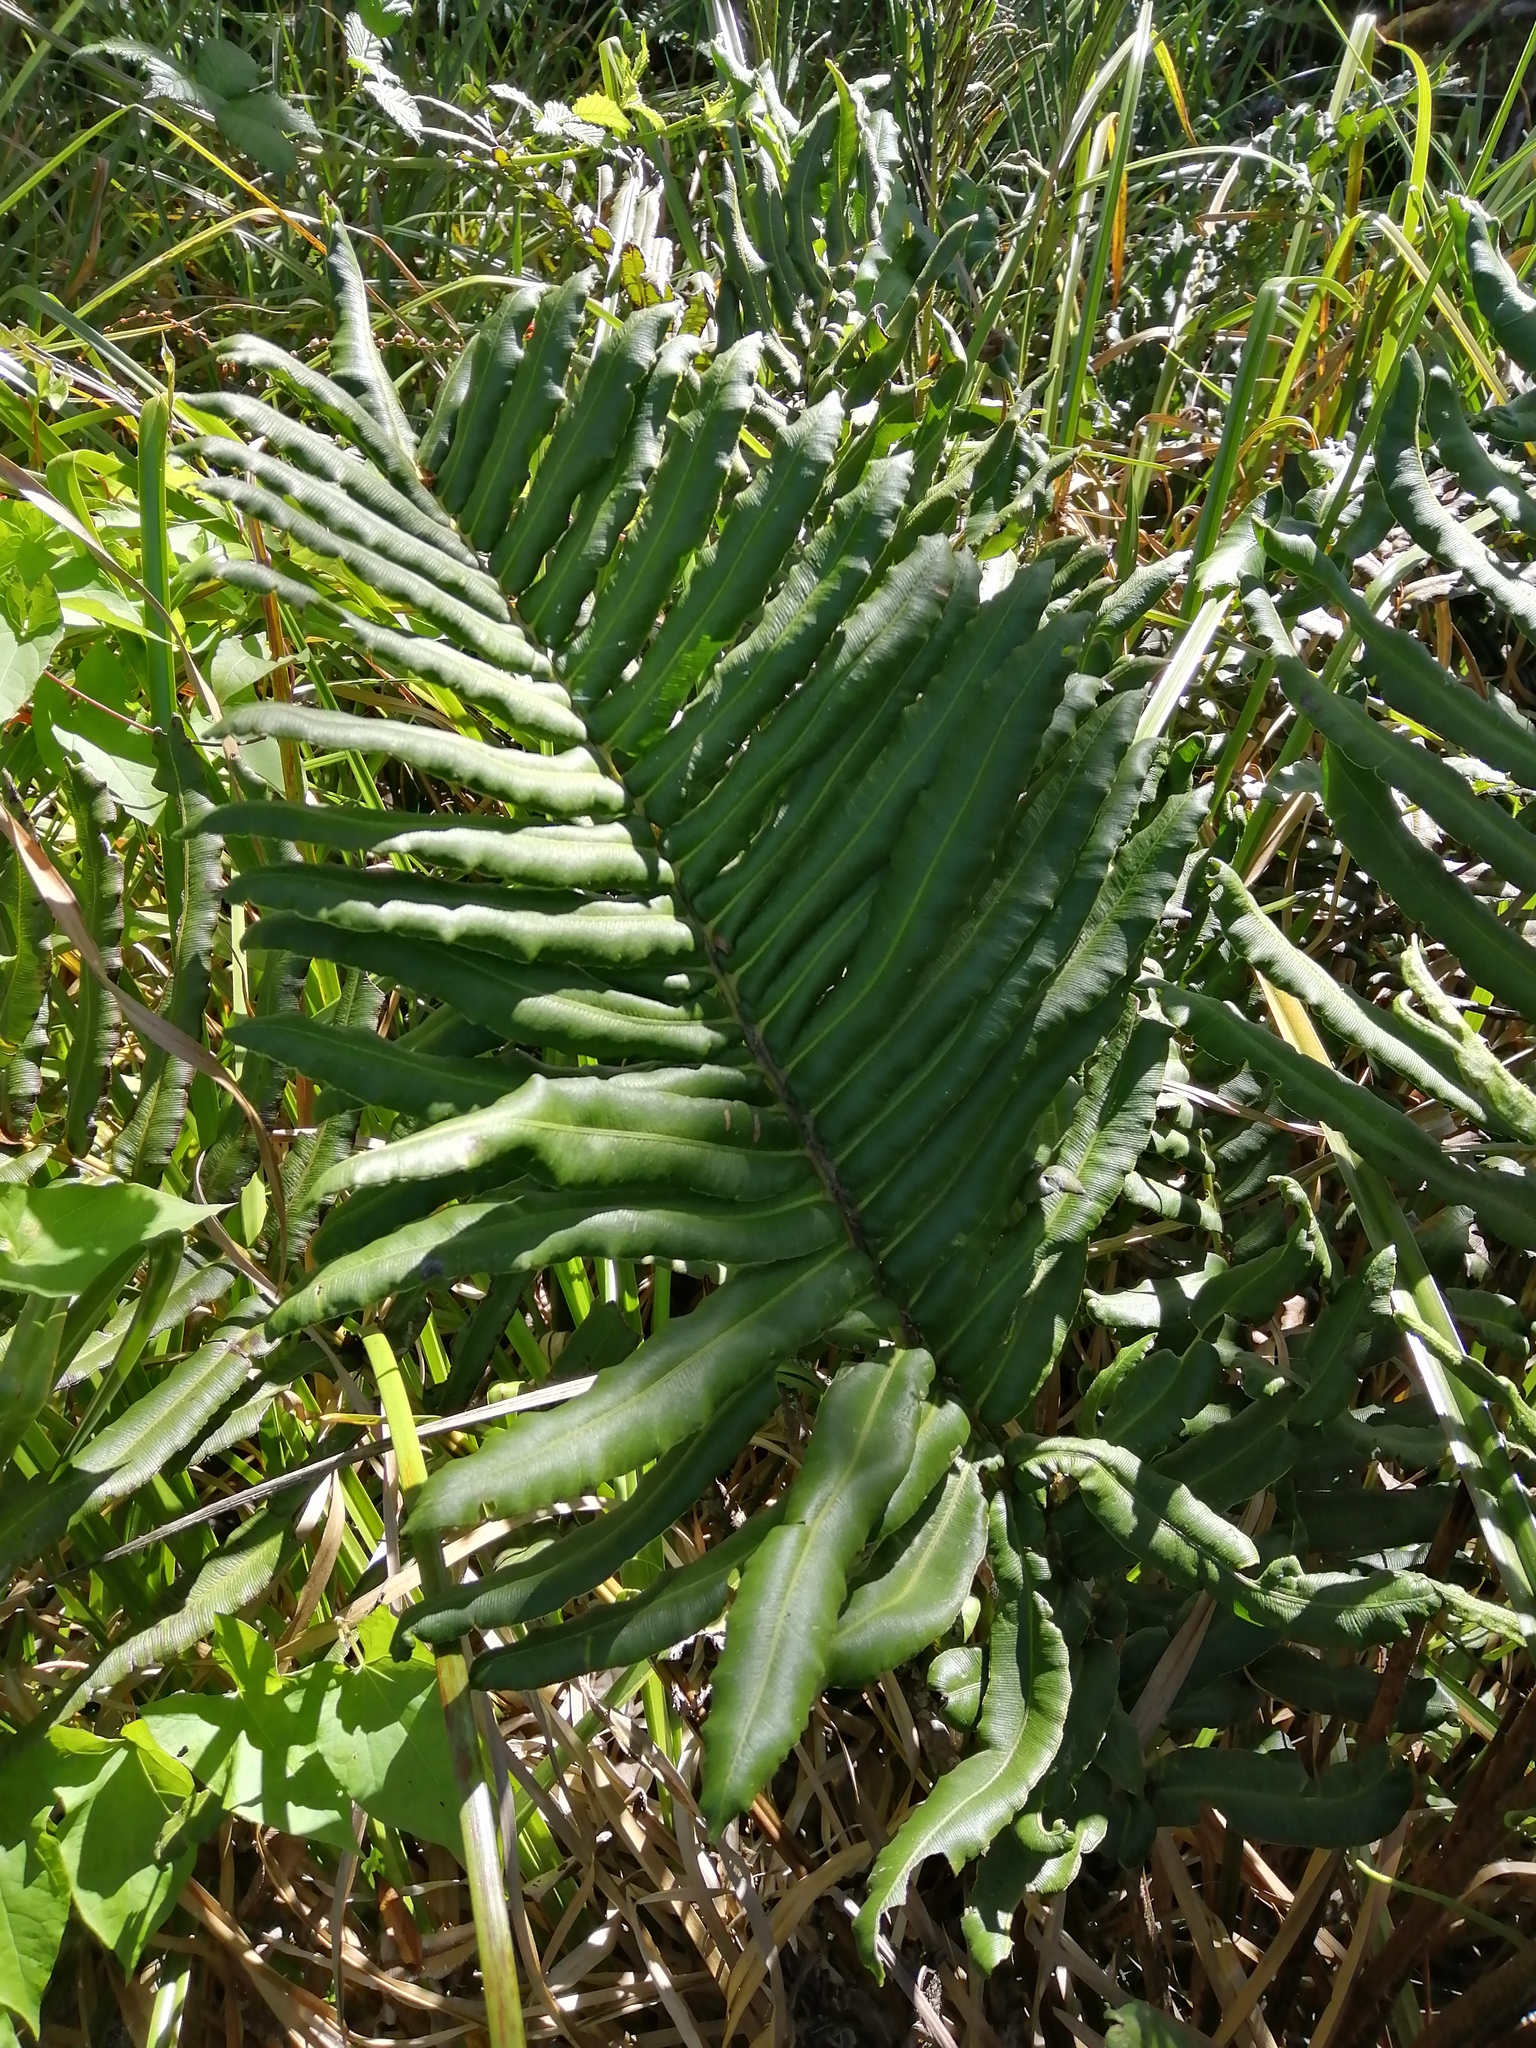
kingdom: Plantae
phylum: Tracheophyta
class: Polypodiopsida
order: Polypodiales
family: Blechnaceae
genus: Parablechnum
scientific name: Parablechnum chilense
